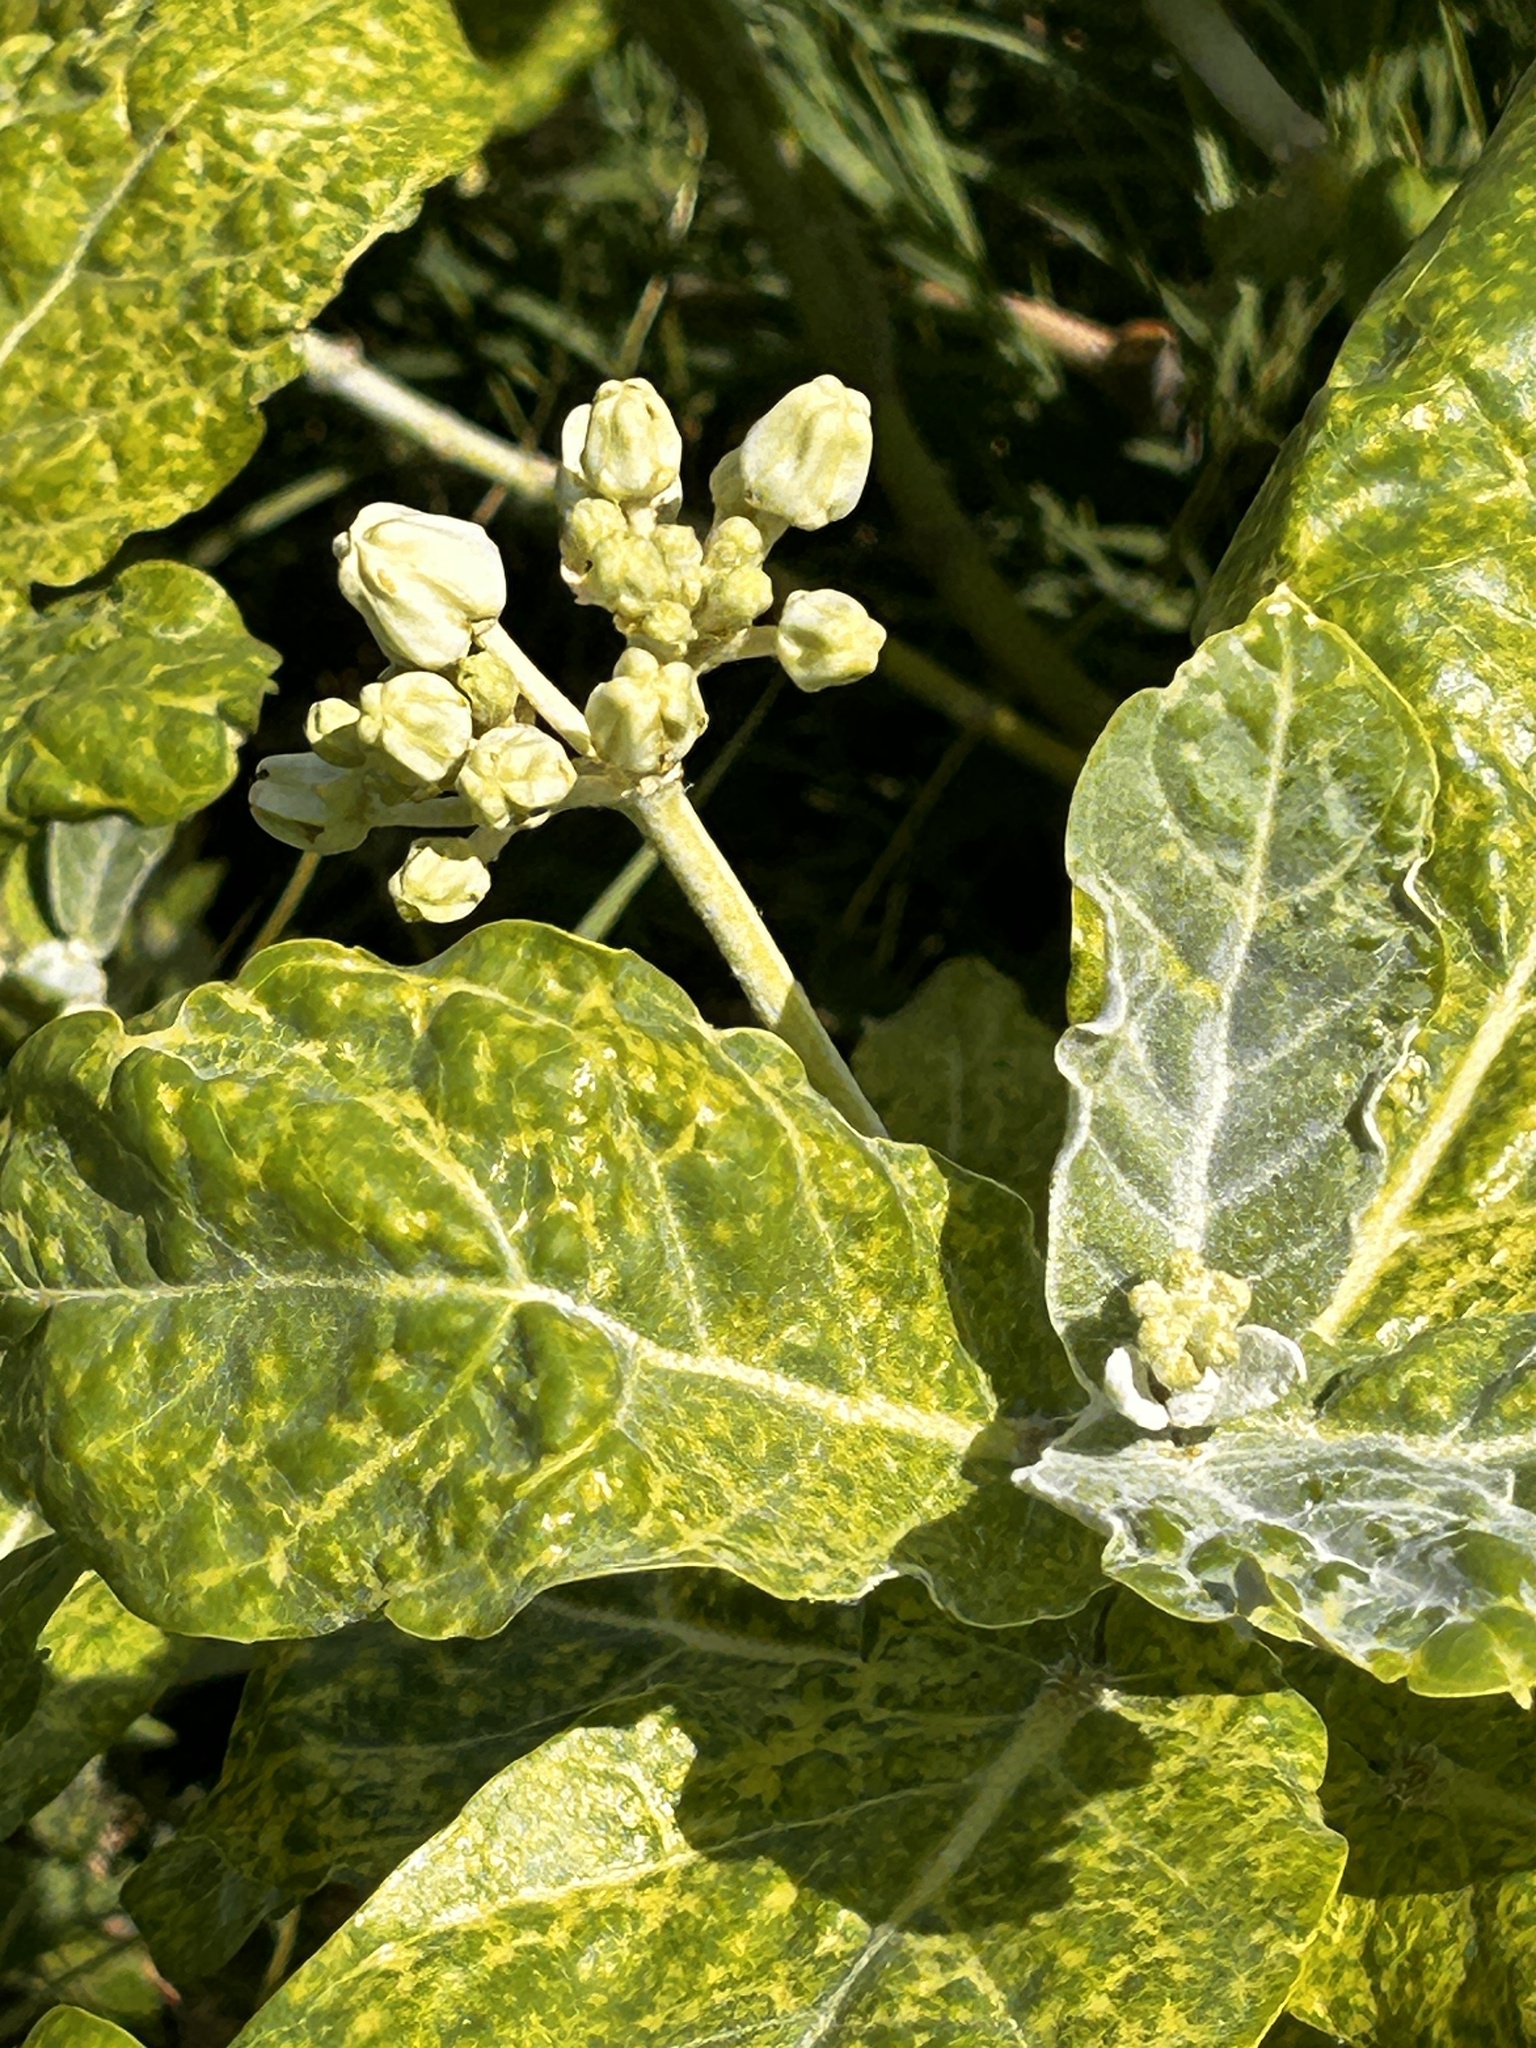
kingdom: Plantae
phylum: Tracheophyta
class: Magnoliopsida
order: Gentianales
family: Apocynaceae
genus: Calotropis
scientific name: Calotropis gigantea
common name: Crown flower
